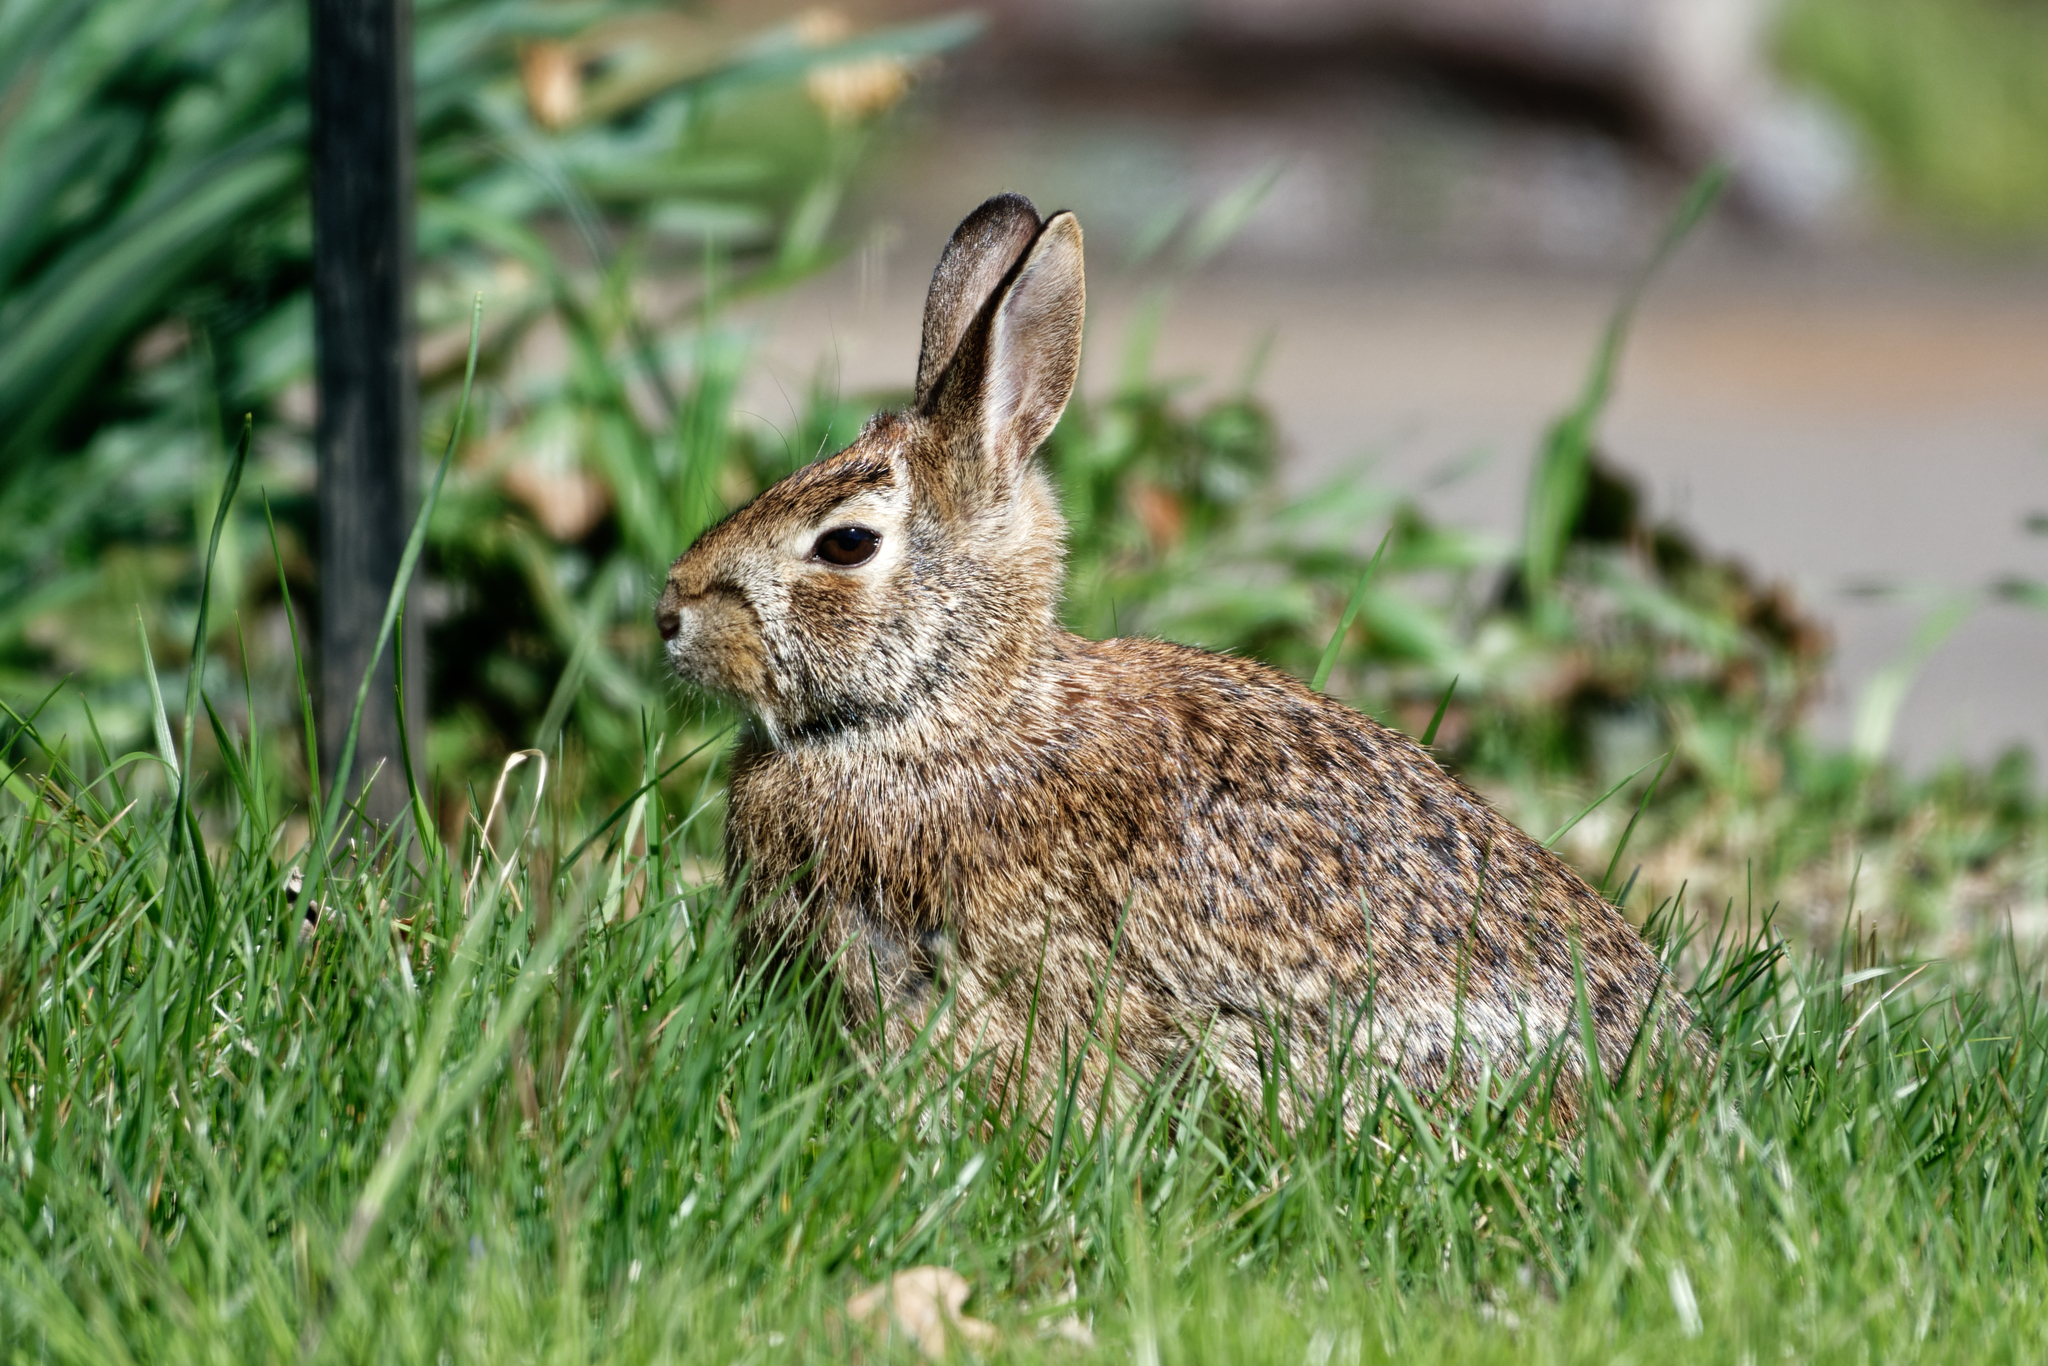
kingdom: Animalia
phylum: Chordata
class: Mammalia
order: Lagomorpha
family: Leporidae
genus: Sylvilagus
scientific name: Sylvilagus floridanus
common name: Eastern cottontail
